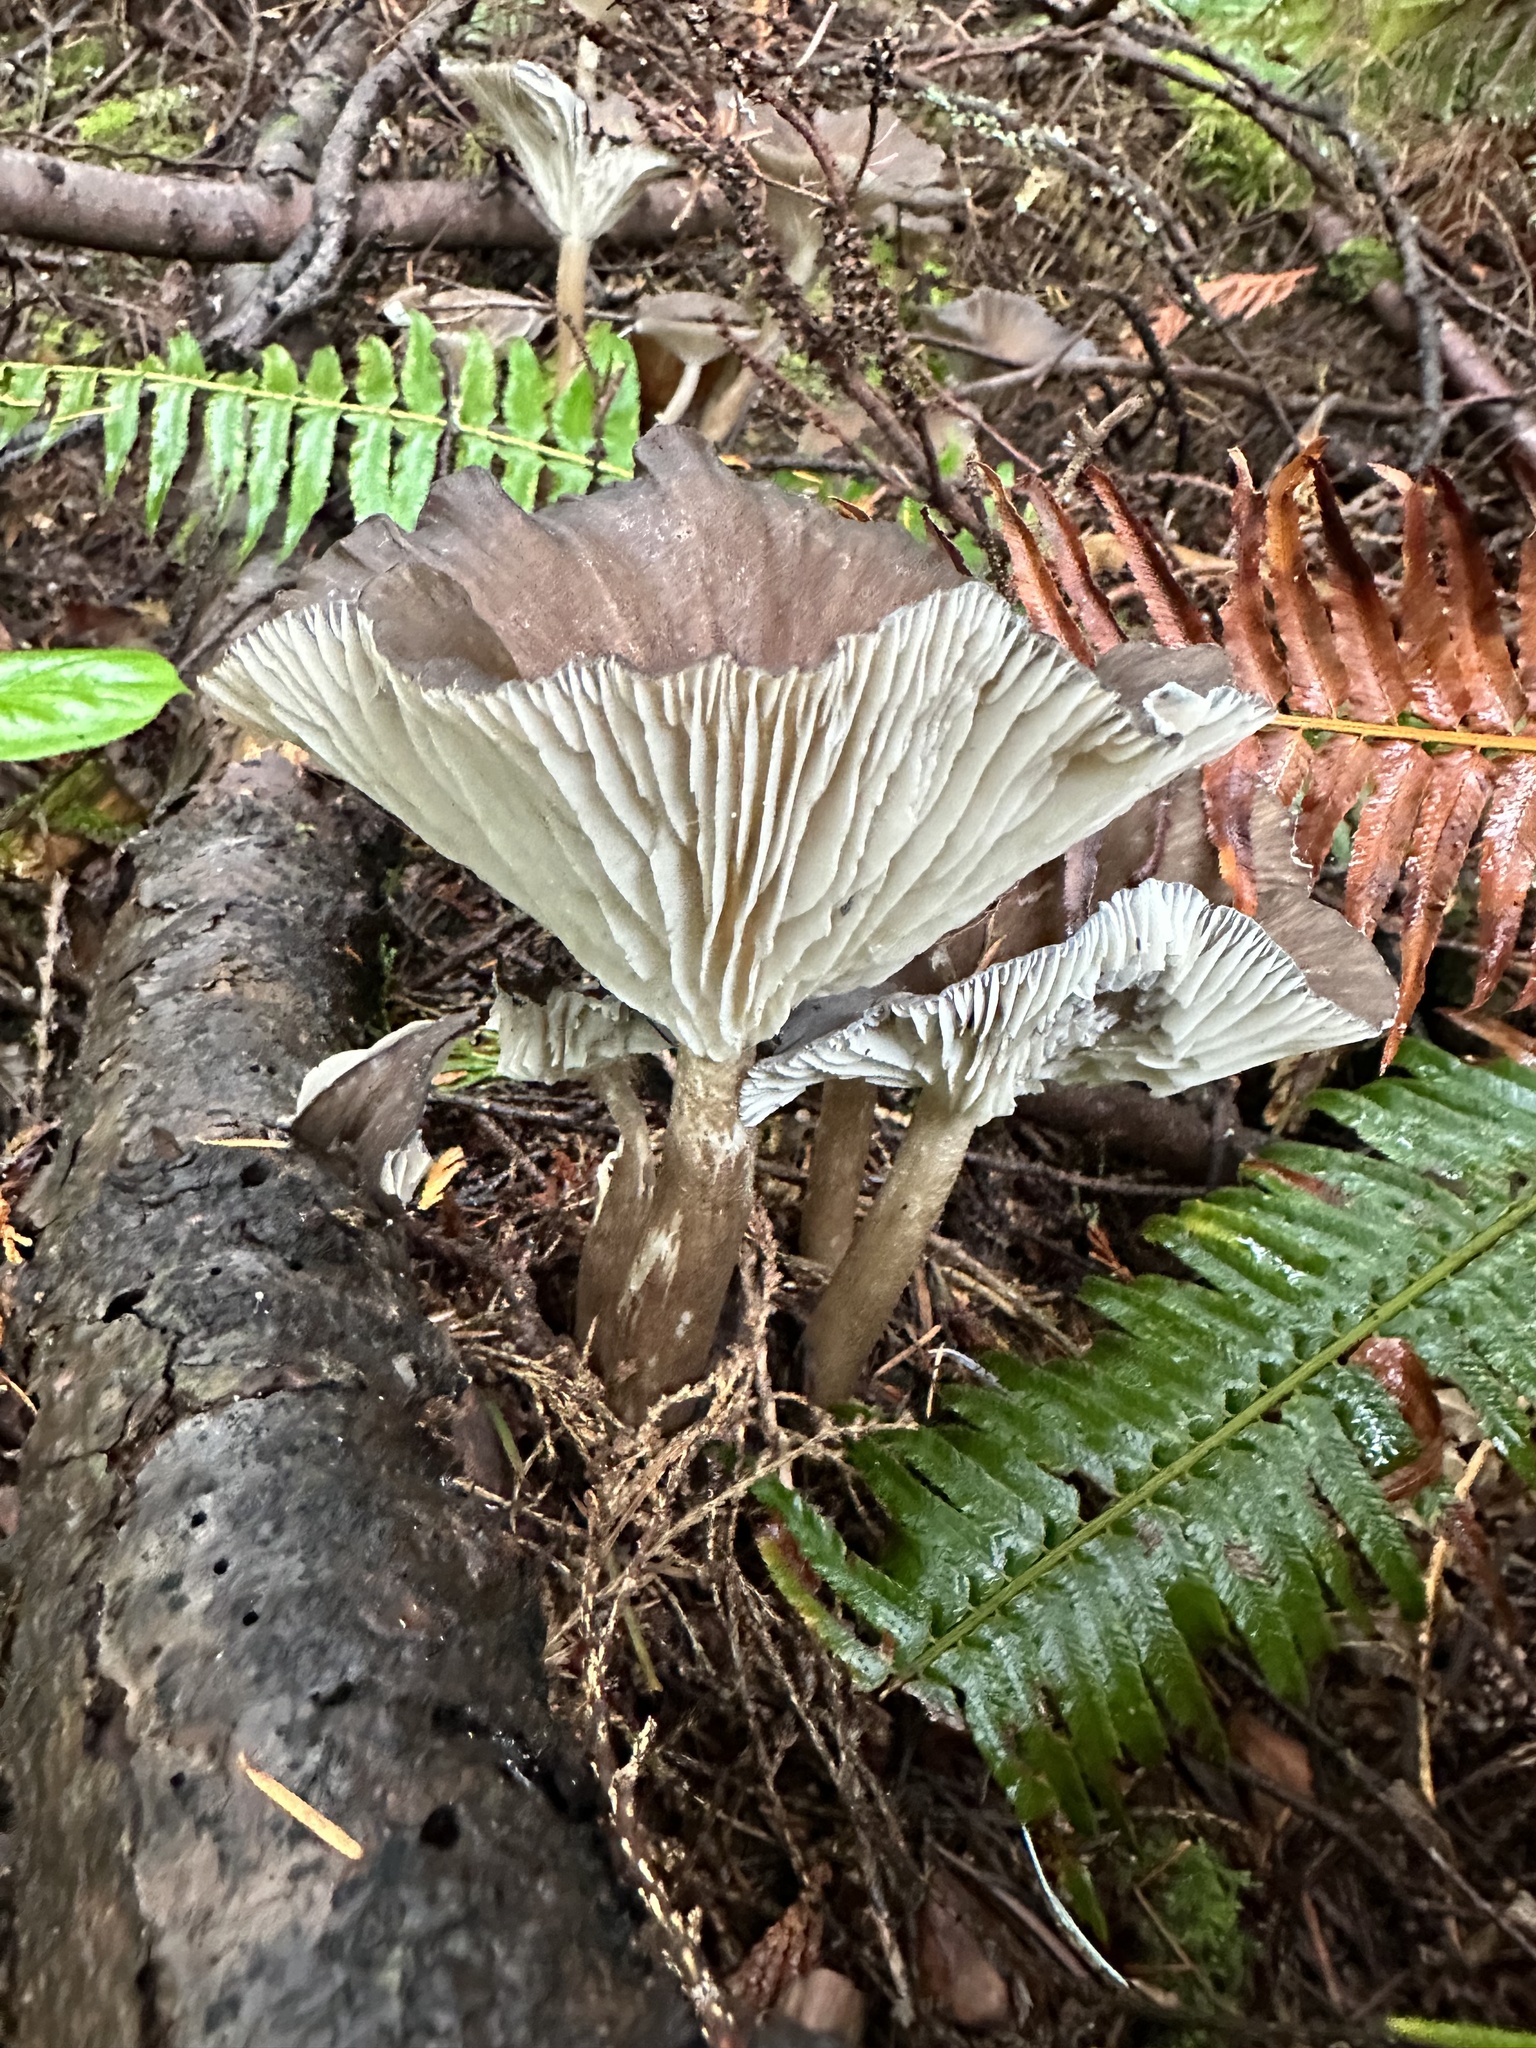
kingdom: Fungi
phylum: Basidiomycota
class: Agaricomycetes
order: Agaricales
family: Marasmiaceae
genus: Gerronema
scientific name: Gerronema atrialbum
